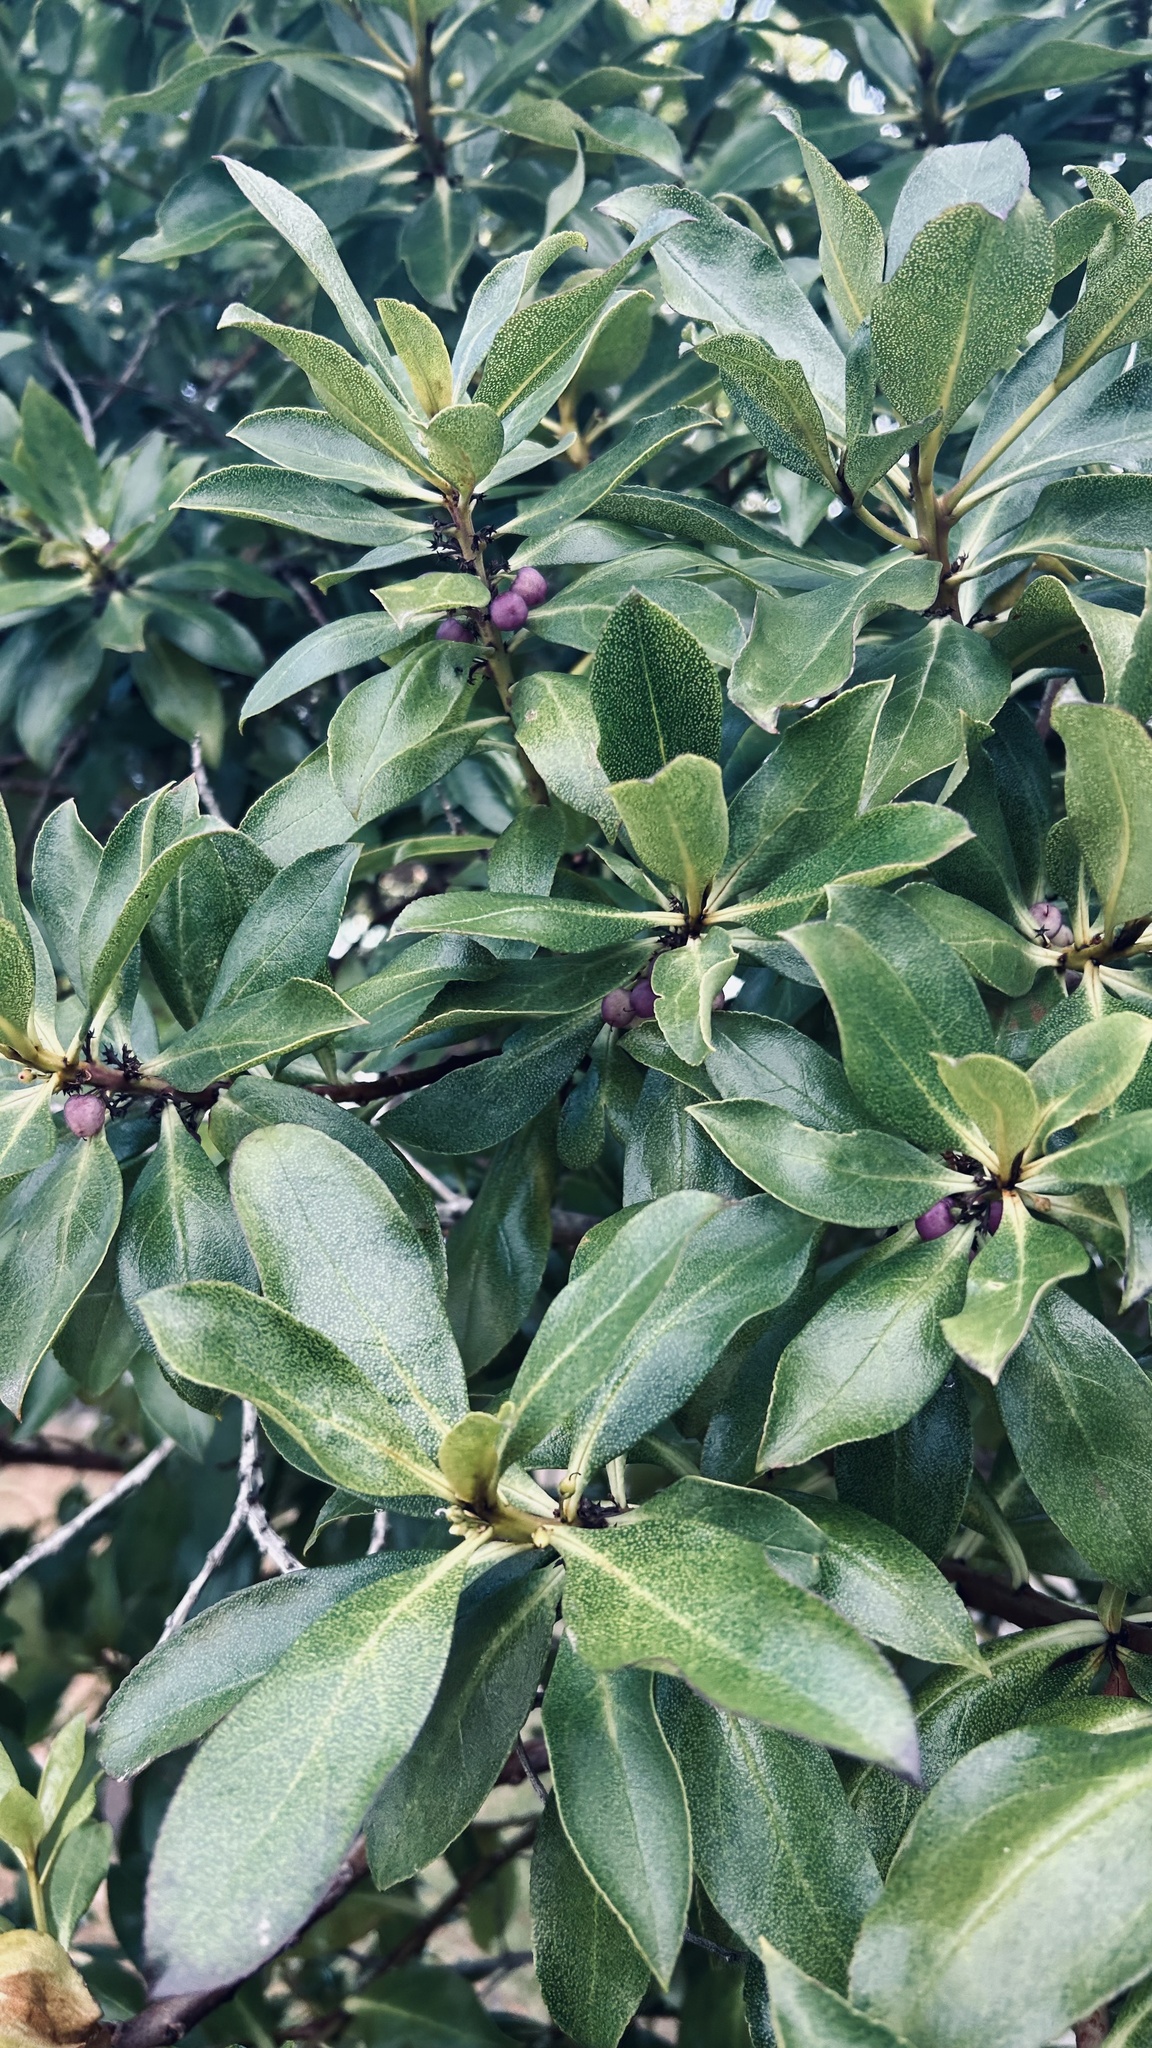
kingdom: Plantae
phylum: Tracheophyta
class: Magnoliopsida
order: Lamiales
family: Scrophulariaceae
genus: Myoporum
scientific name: Myoporum laetum
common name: Ngaio tree
